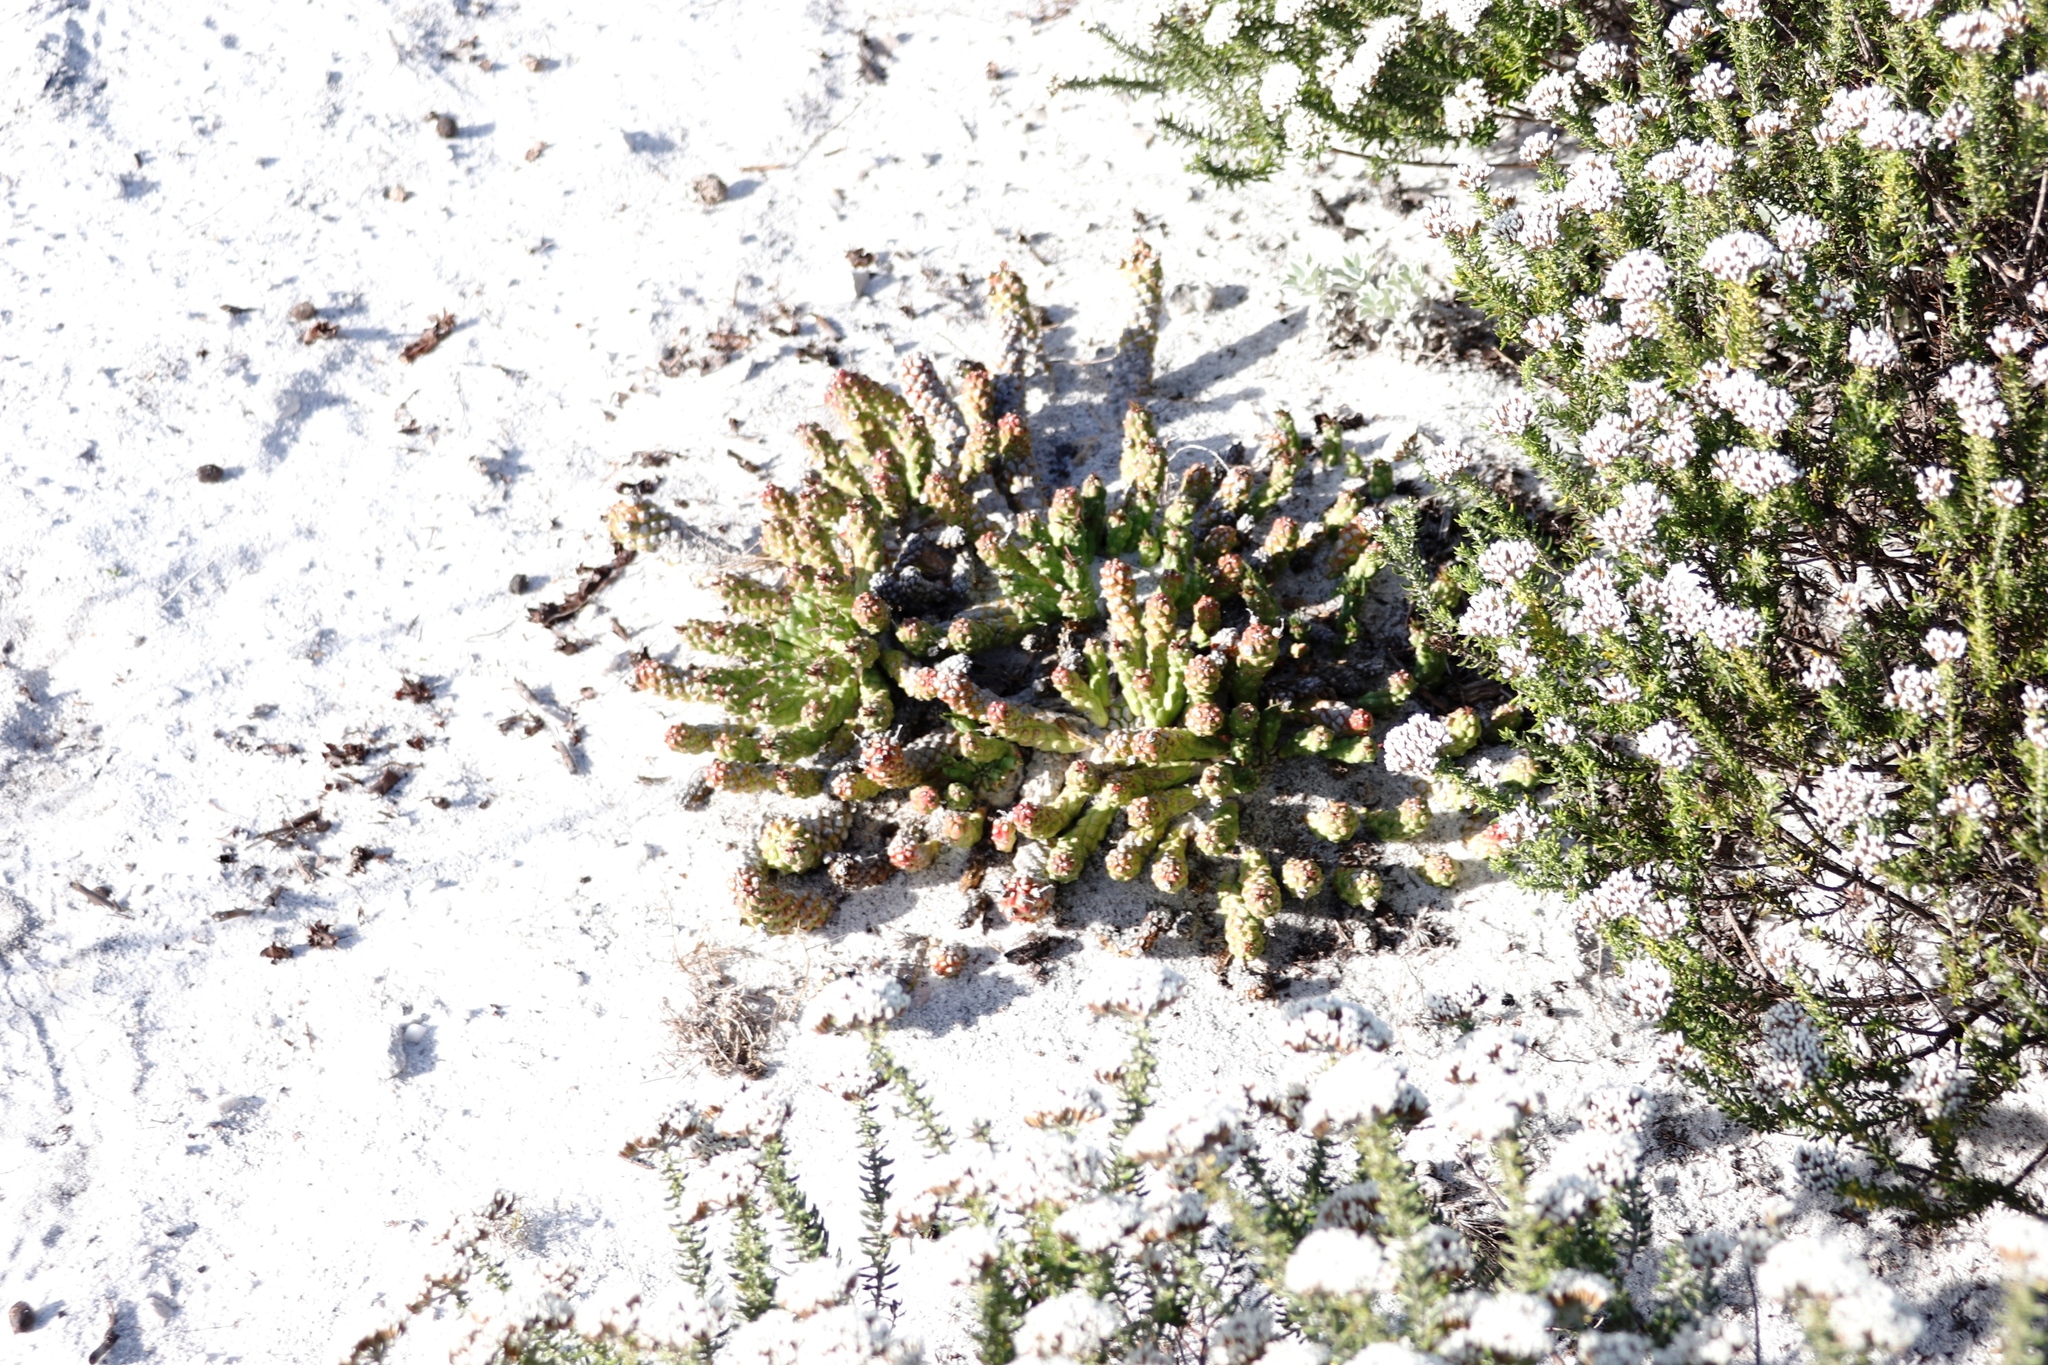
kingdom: Plantae
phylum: Tracheophyta
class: Magnoliopsida
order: Malpighiales
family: Euphorbiaceae
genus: Euphorbia
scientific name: Euphorbia caput-medusae
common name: Medusa's-head
